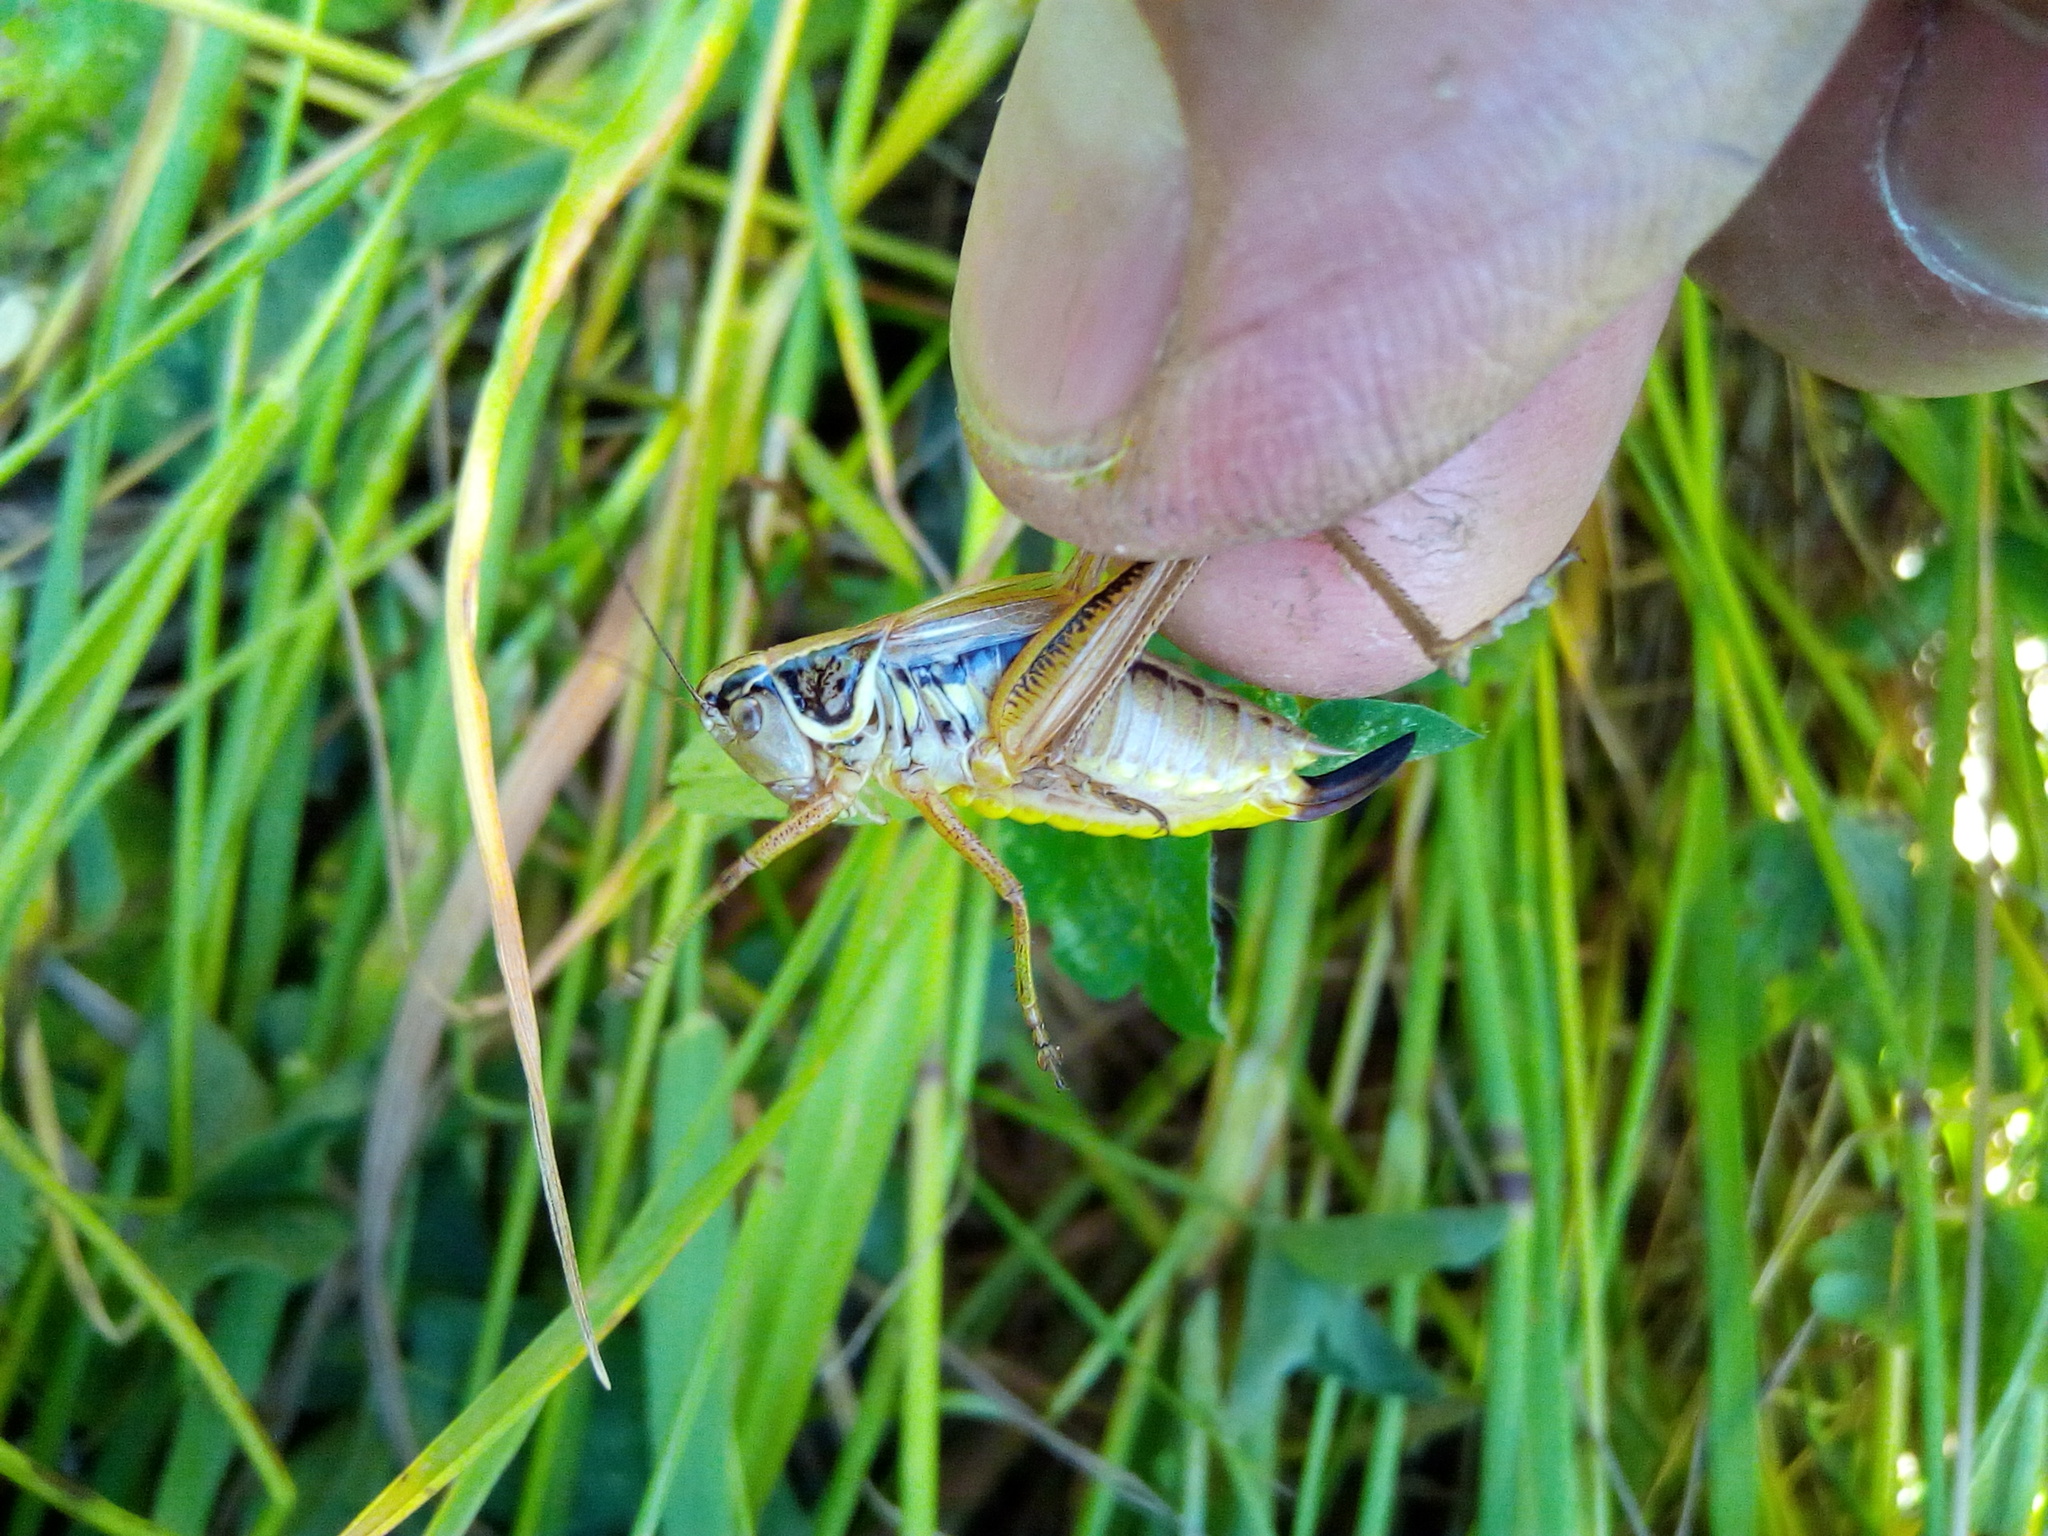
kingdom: Animalia
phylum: Arthropoda
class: Insecta
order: Orthoptera
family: Tettigoniidae
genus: Roeseliana
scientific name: Roeseliana roeselii
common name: Roesel's bush cricket
